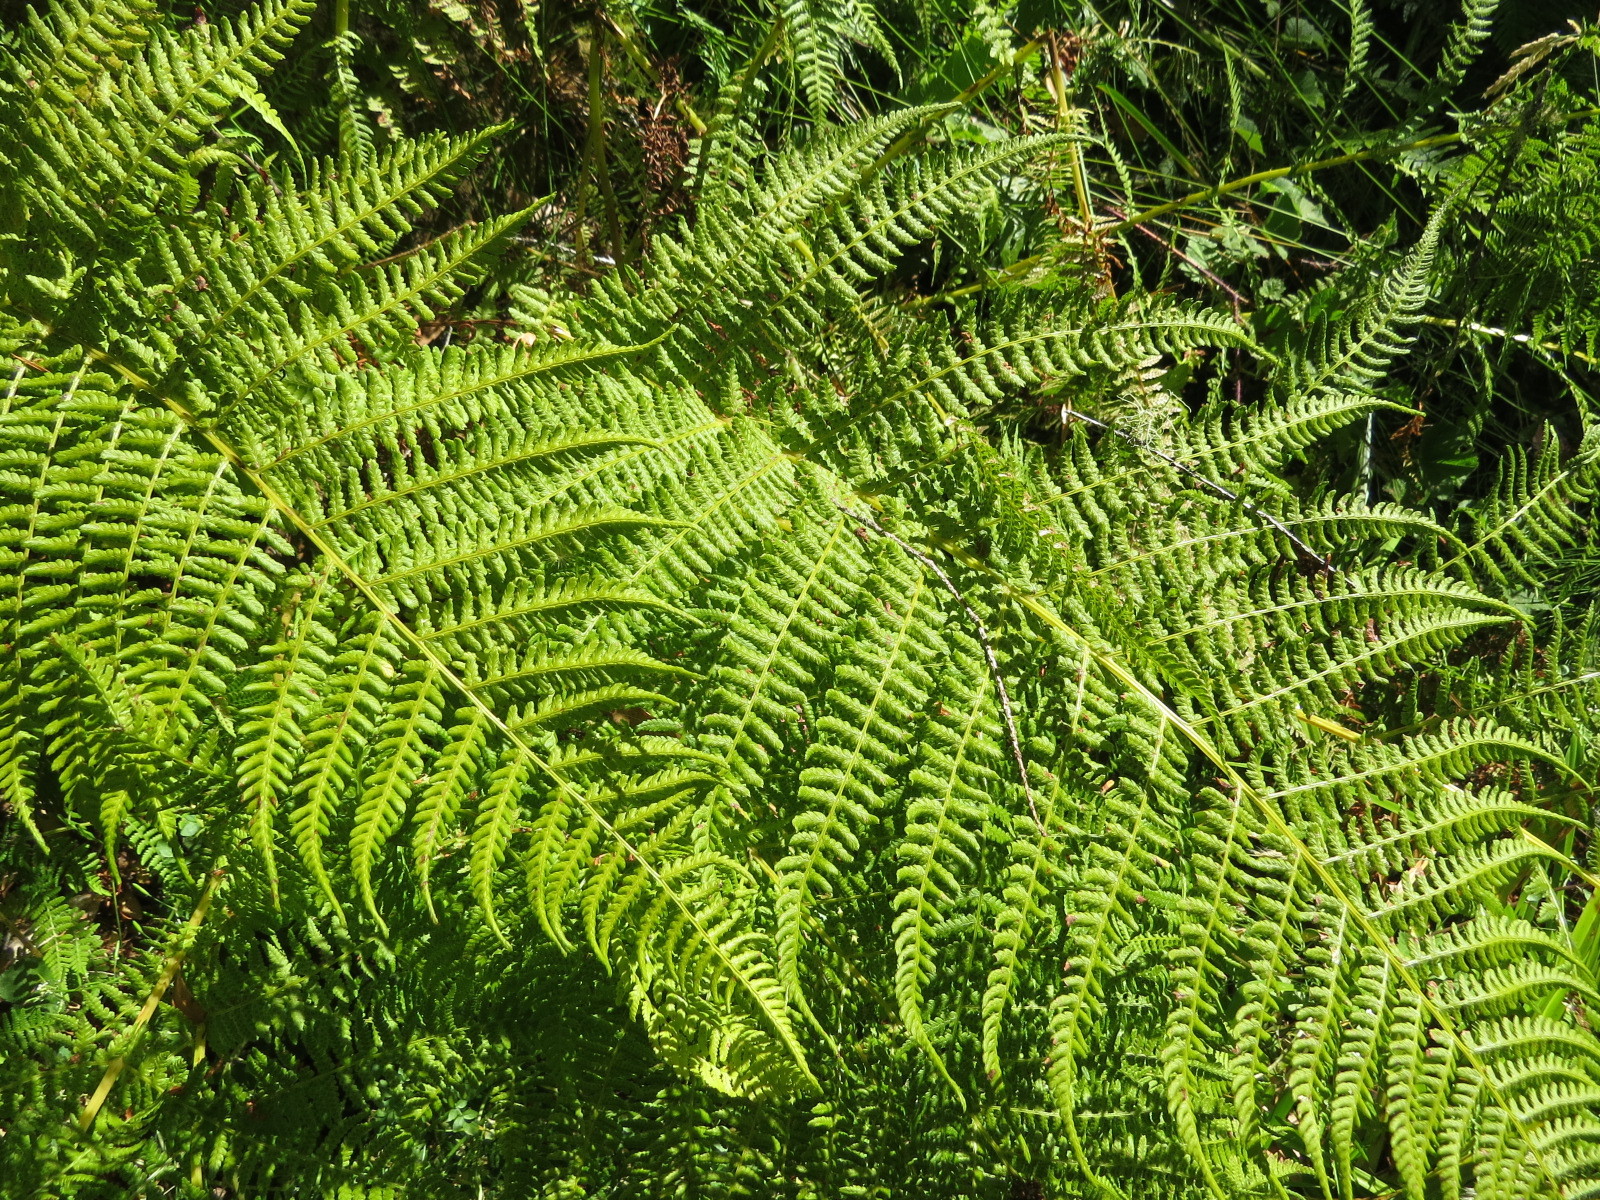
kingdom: Plantae
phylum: Tracheophyta
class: Polypodiopsida
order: Polypodiales
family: Athyriaceae
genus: Athyrium
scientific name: Athyrium filix-femina
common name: Lady fern
